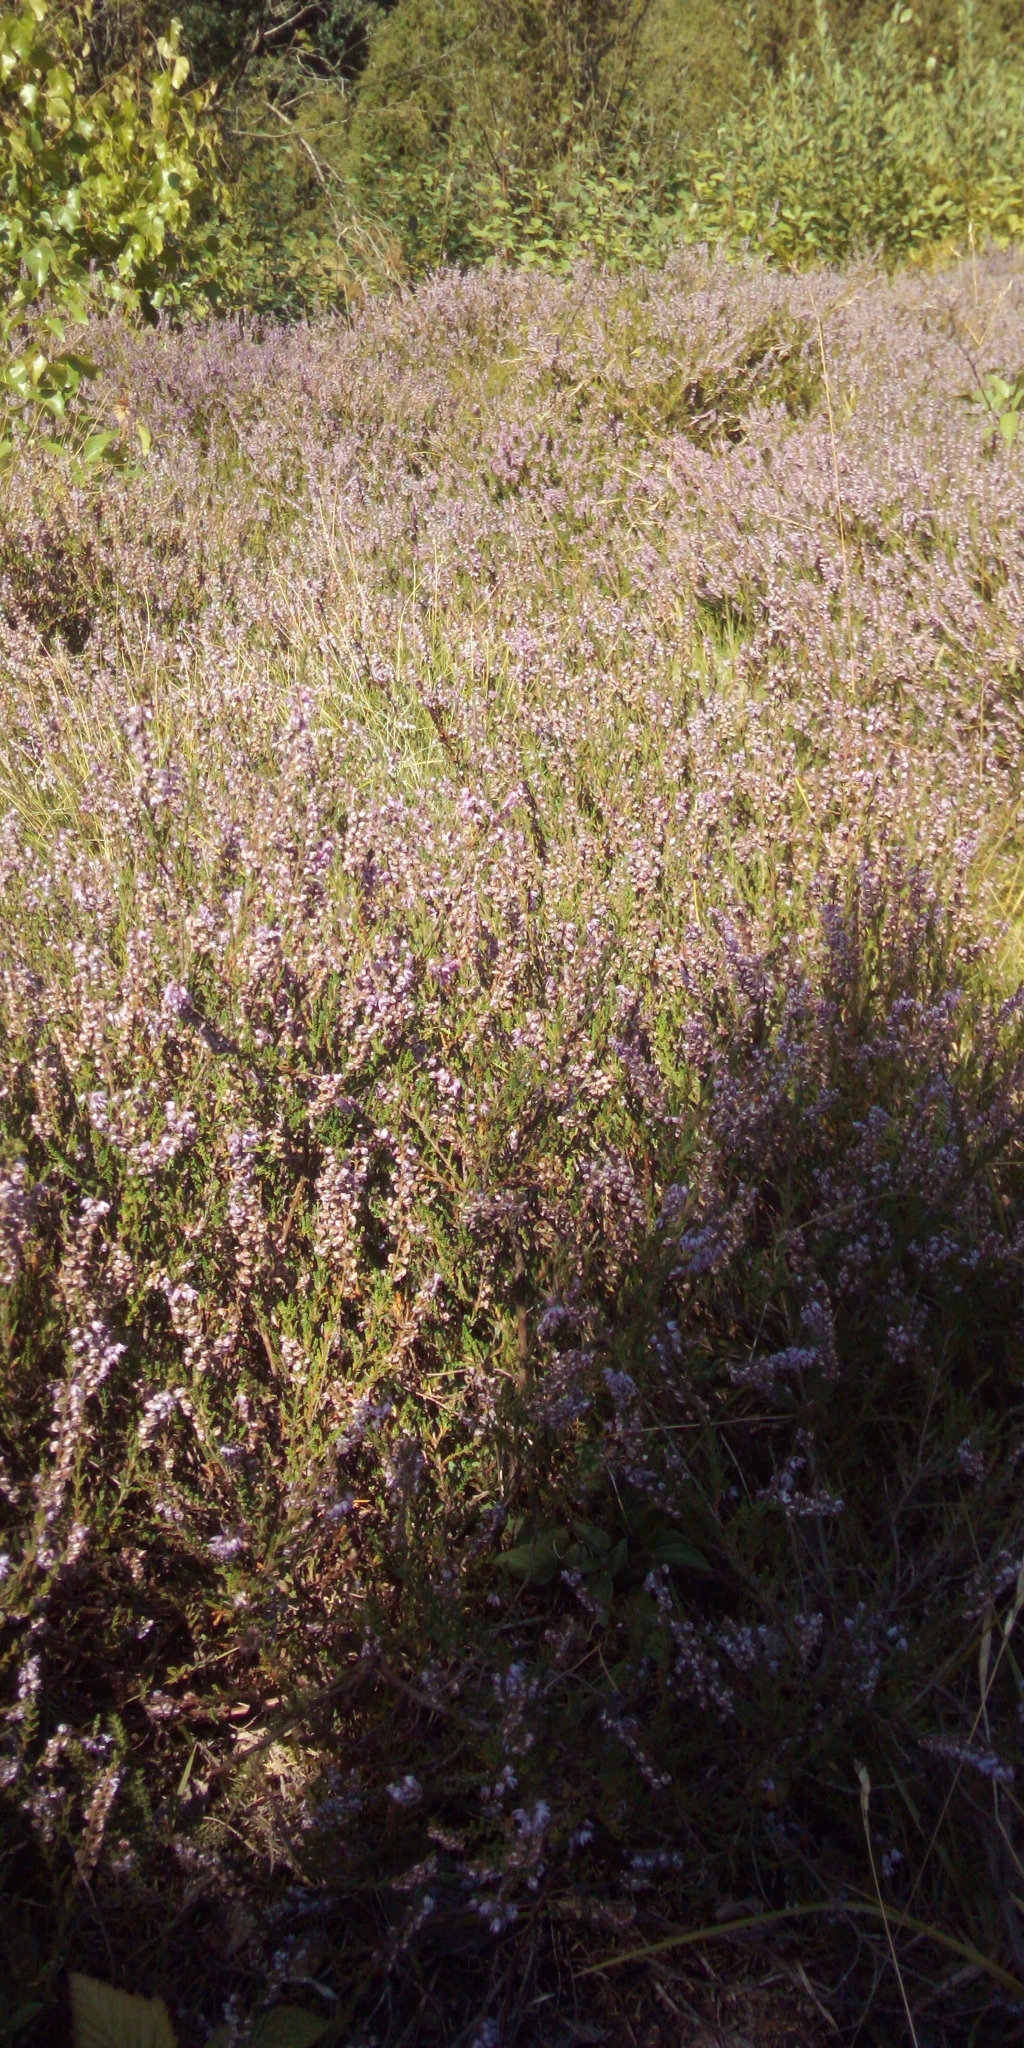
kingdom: Plantae
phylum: Tracheophyta
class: Magnoliopsida
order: Ericales
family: Ericaceae
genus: Calluna
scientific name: Calluna vulgaris
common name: Heather
